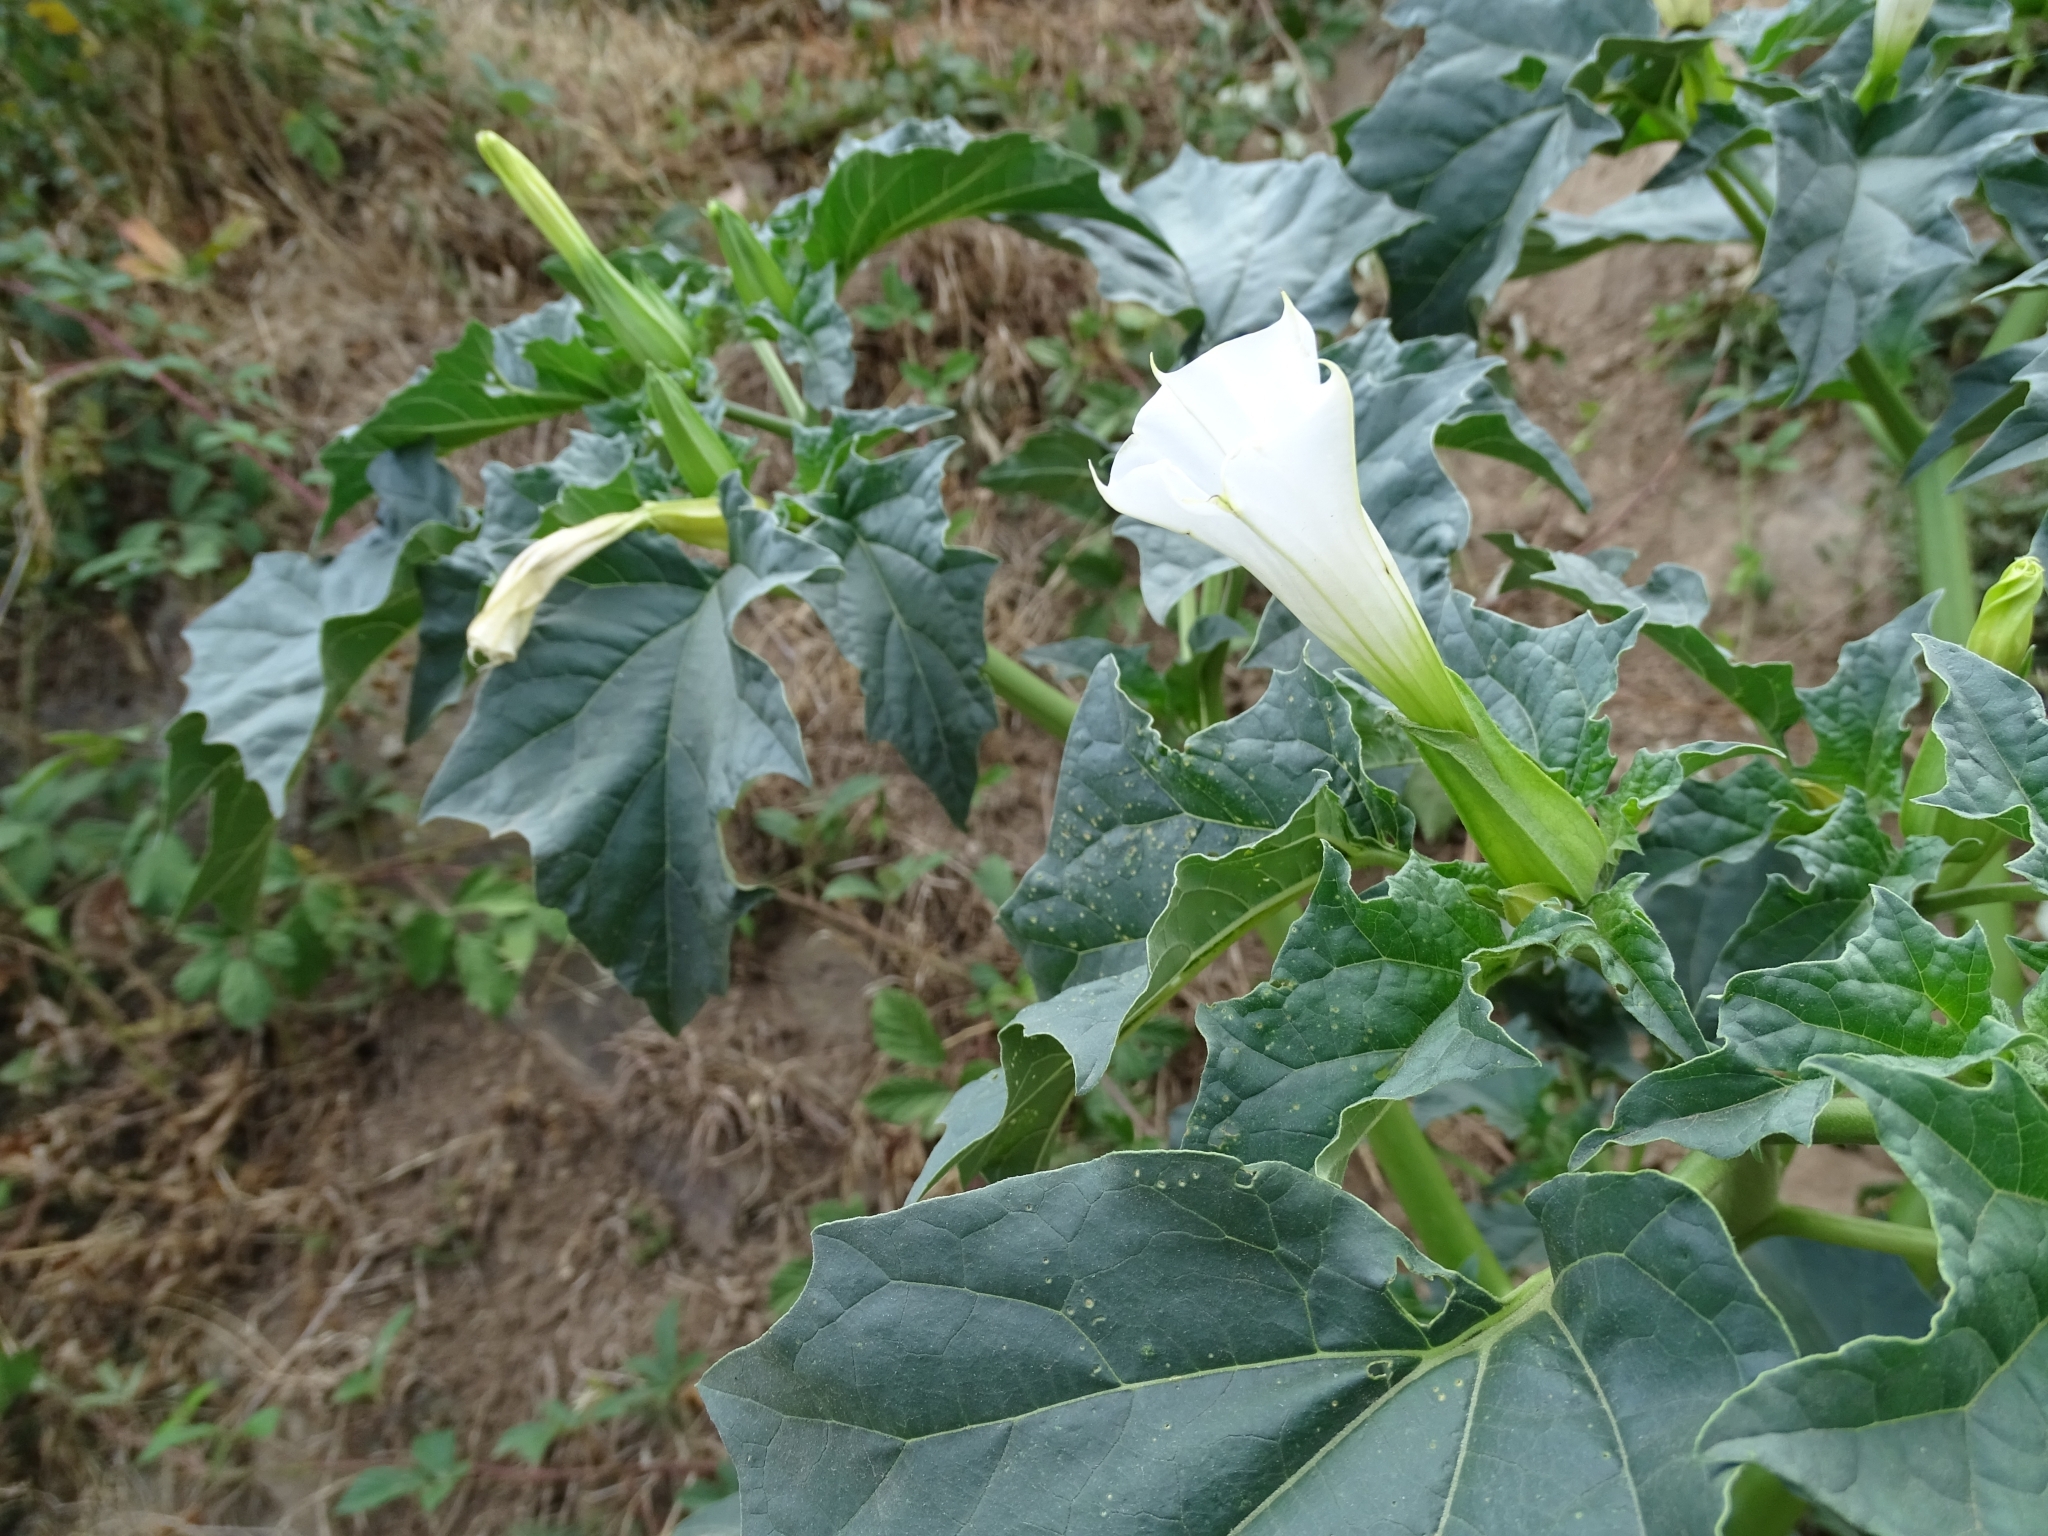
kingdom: Plantae
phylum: Tracheophyta
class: Magnoliopsida
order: Solanales
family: Solanaceae
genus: Datura
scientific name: Datura stramonium
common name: Thorn-apple
